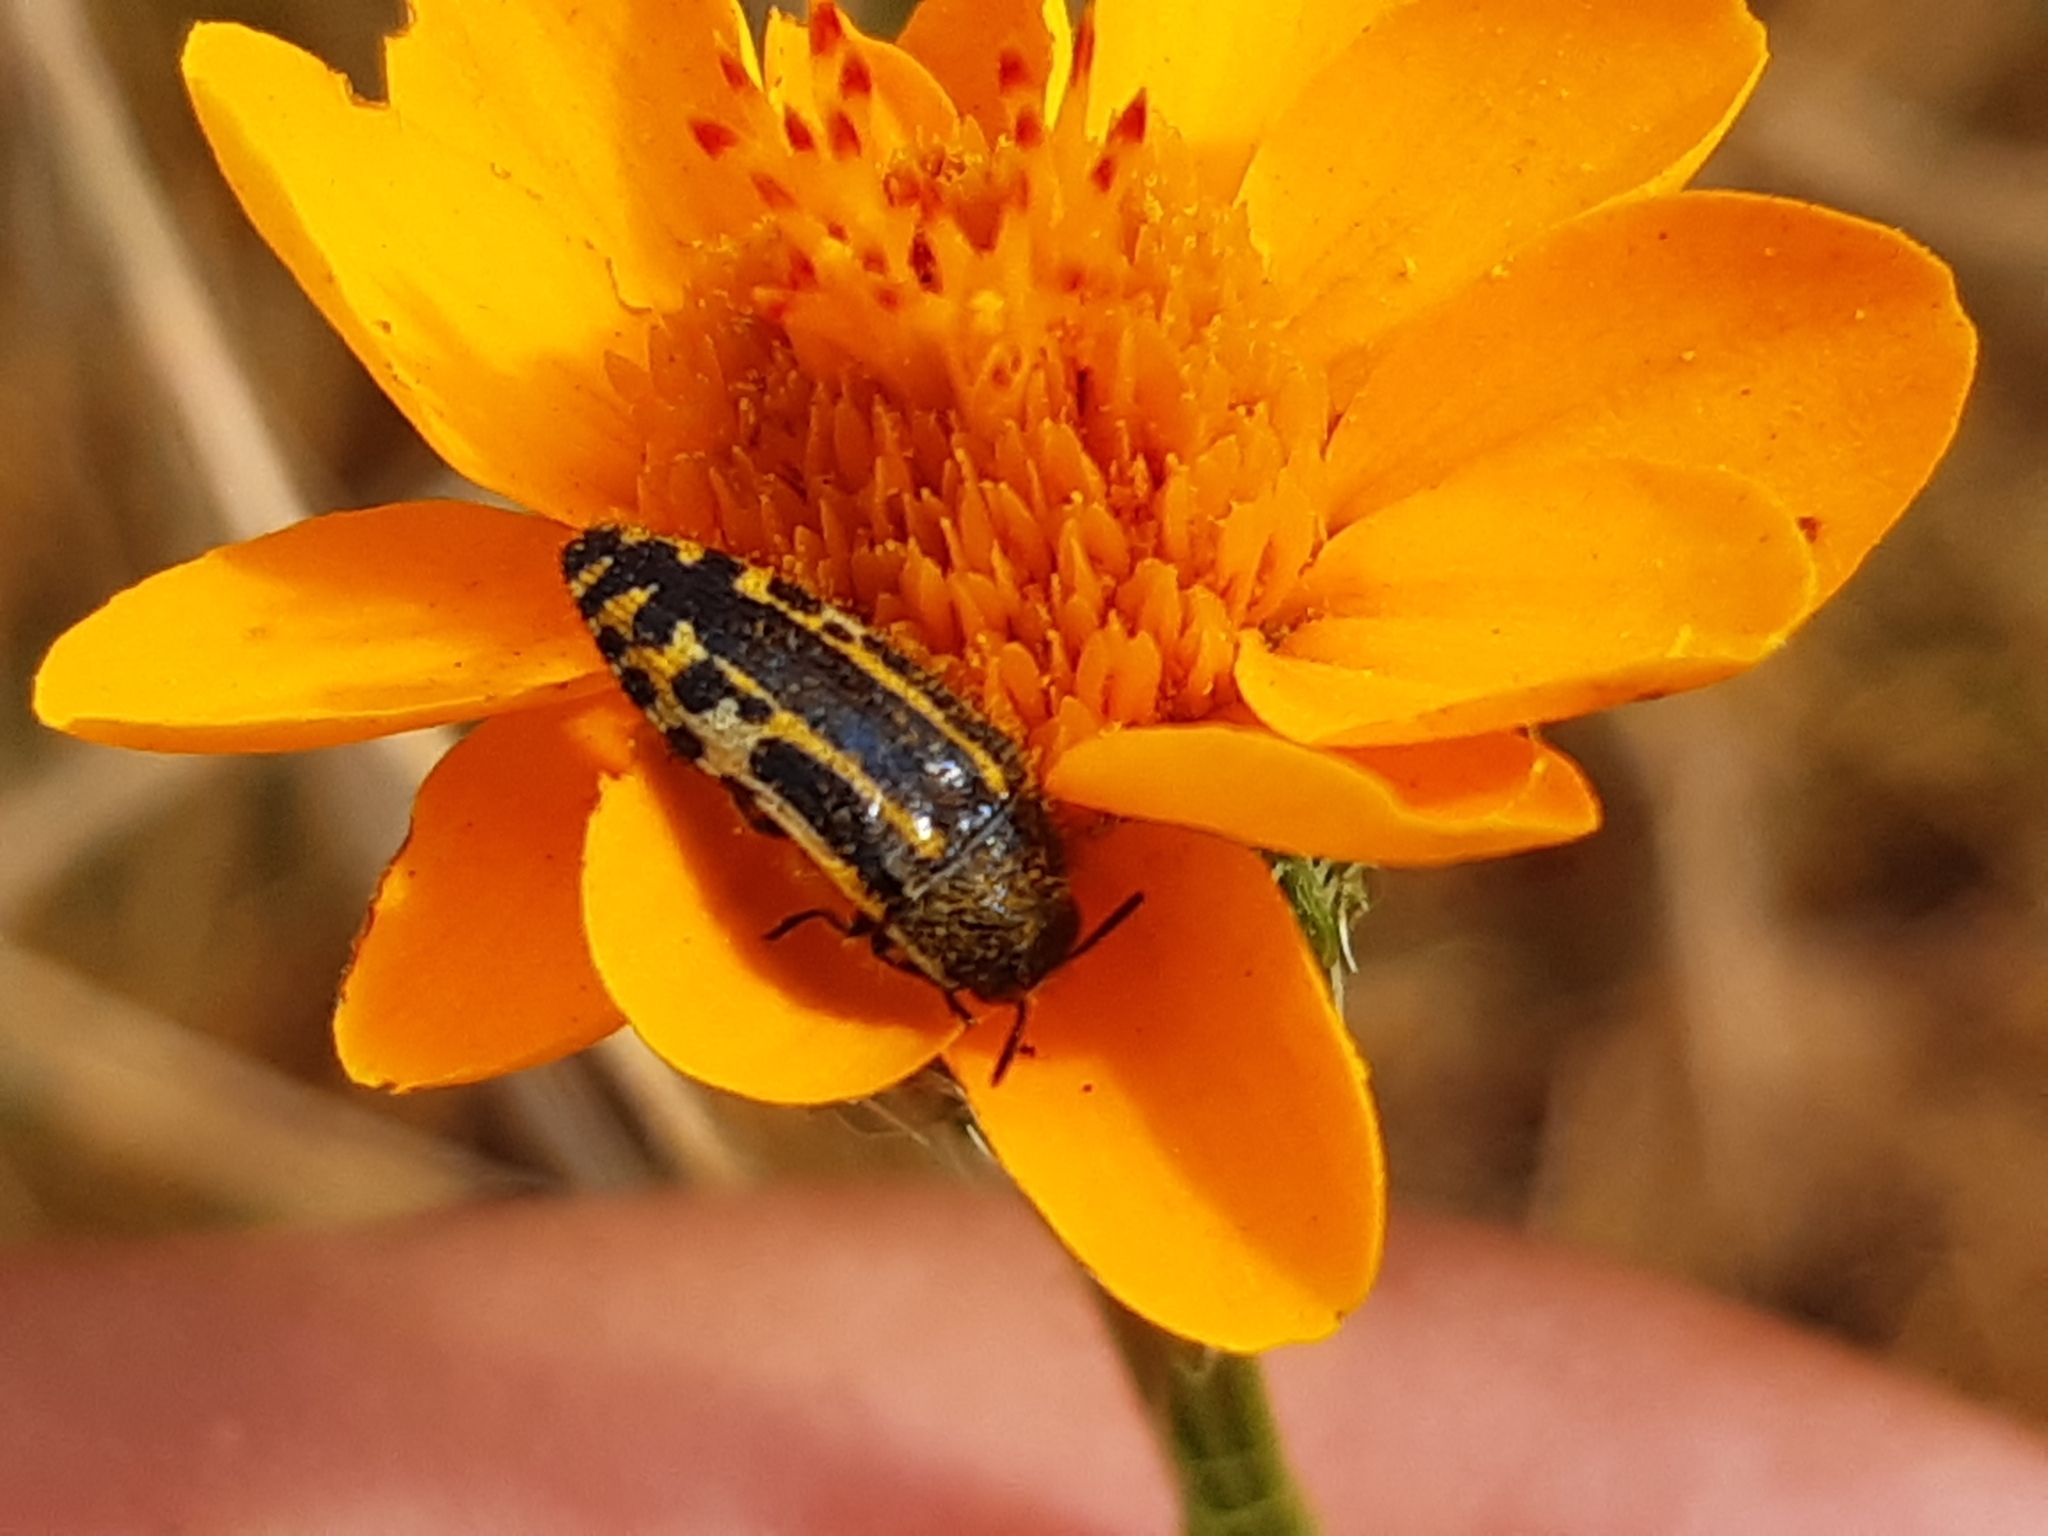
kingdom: Animalia
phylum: Arthropoda
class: Insecta
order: Coleoptera
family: Buprestidae
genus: Acmaeodera
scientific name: Acmaeodera scalaris
